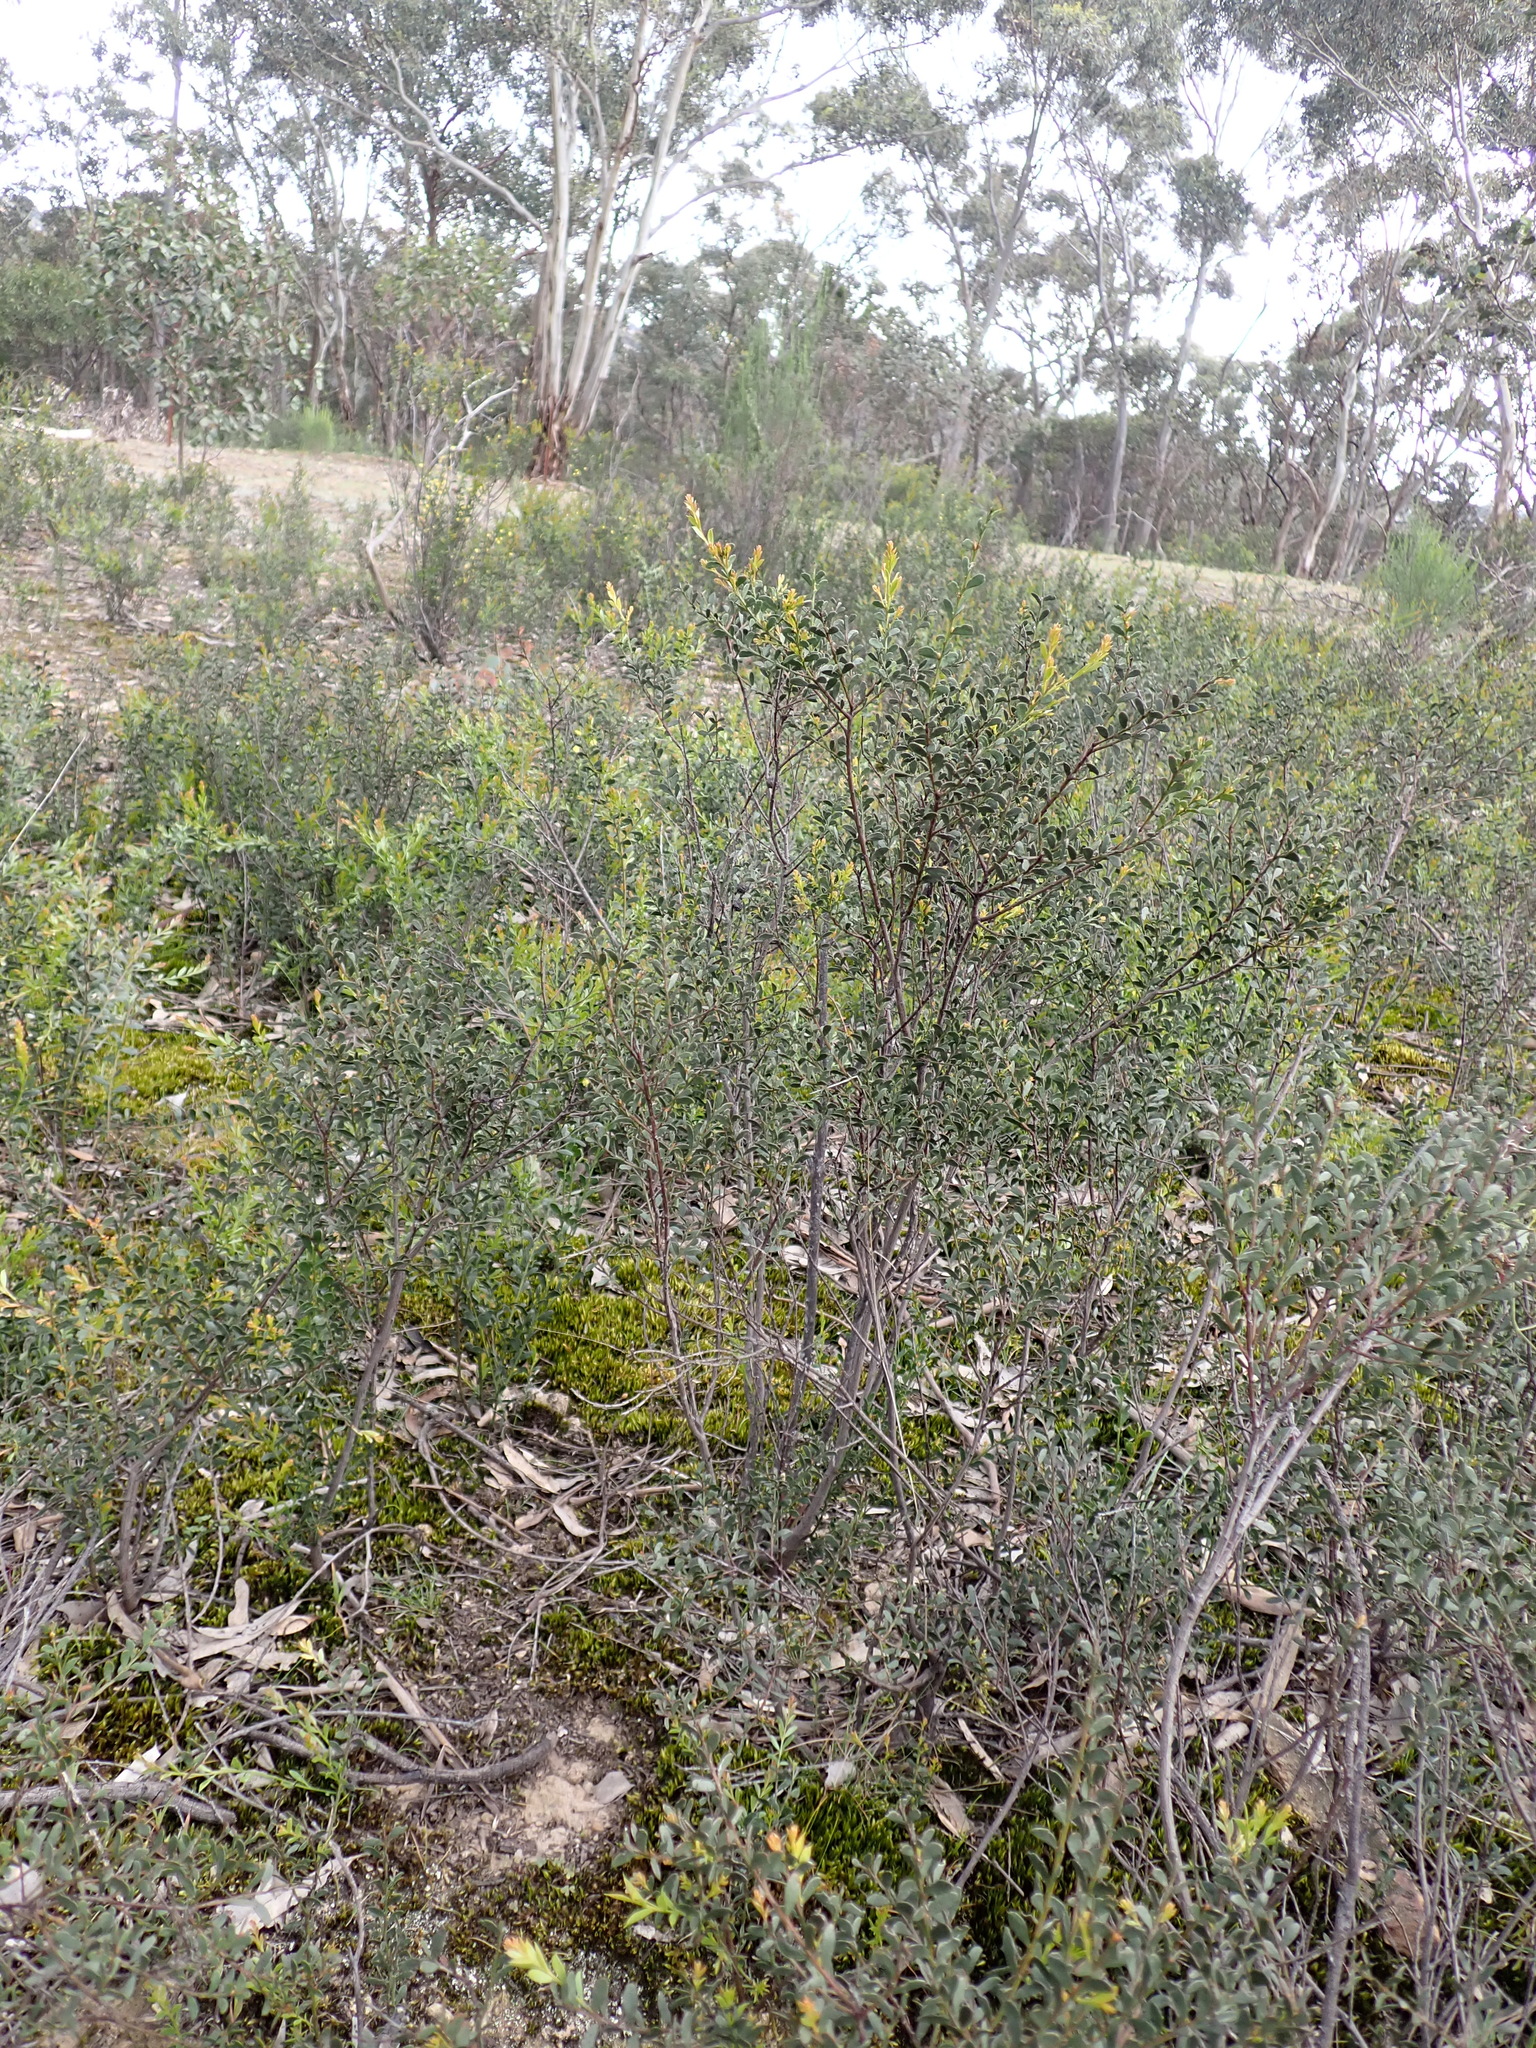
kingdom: Plantae
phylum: Tracheophyta
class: Magnoliopsida
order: Fabales
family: Fabaceae
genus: Acacia
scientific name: Acacia acinacea
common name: Gold-dust acacia
